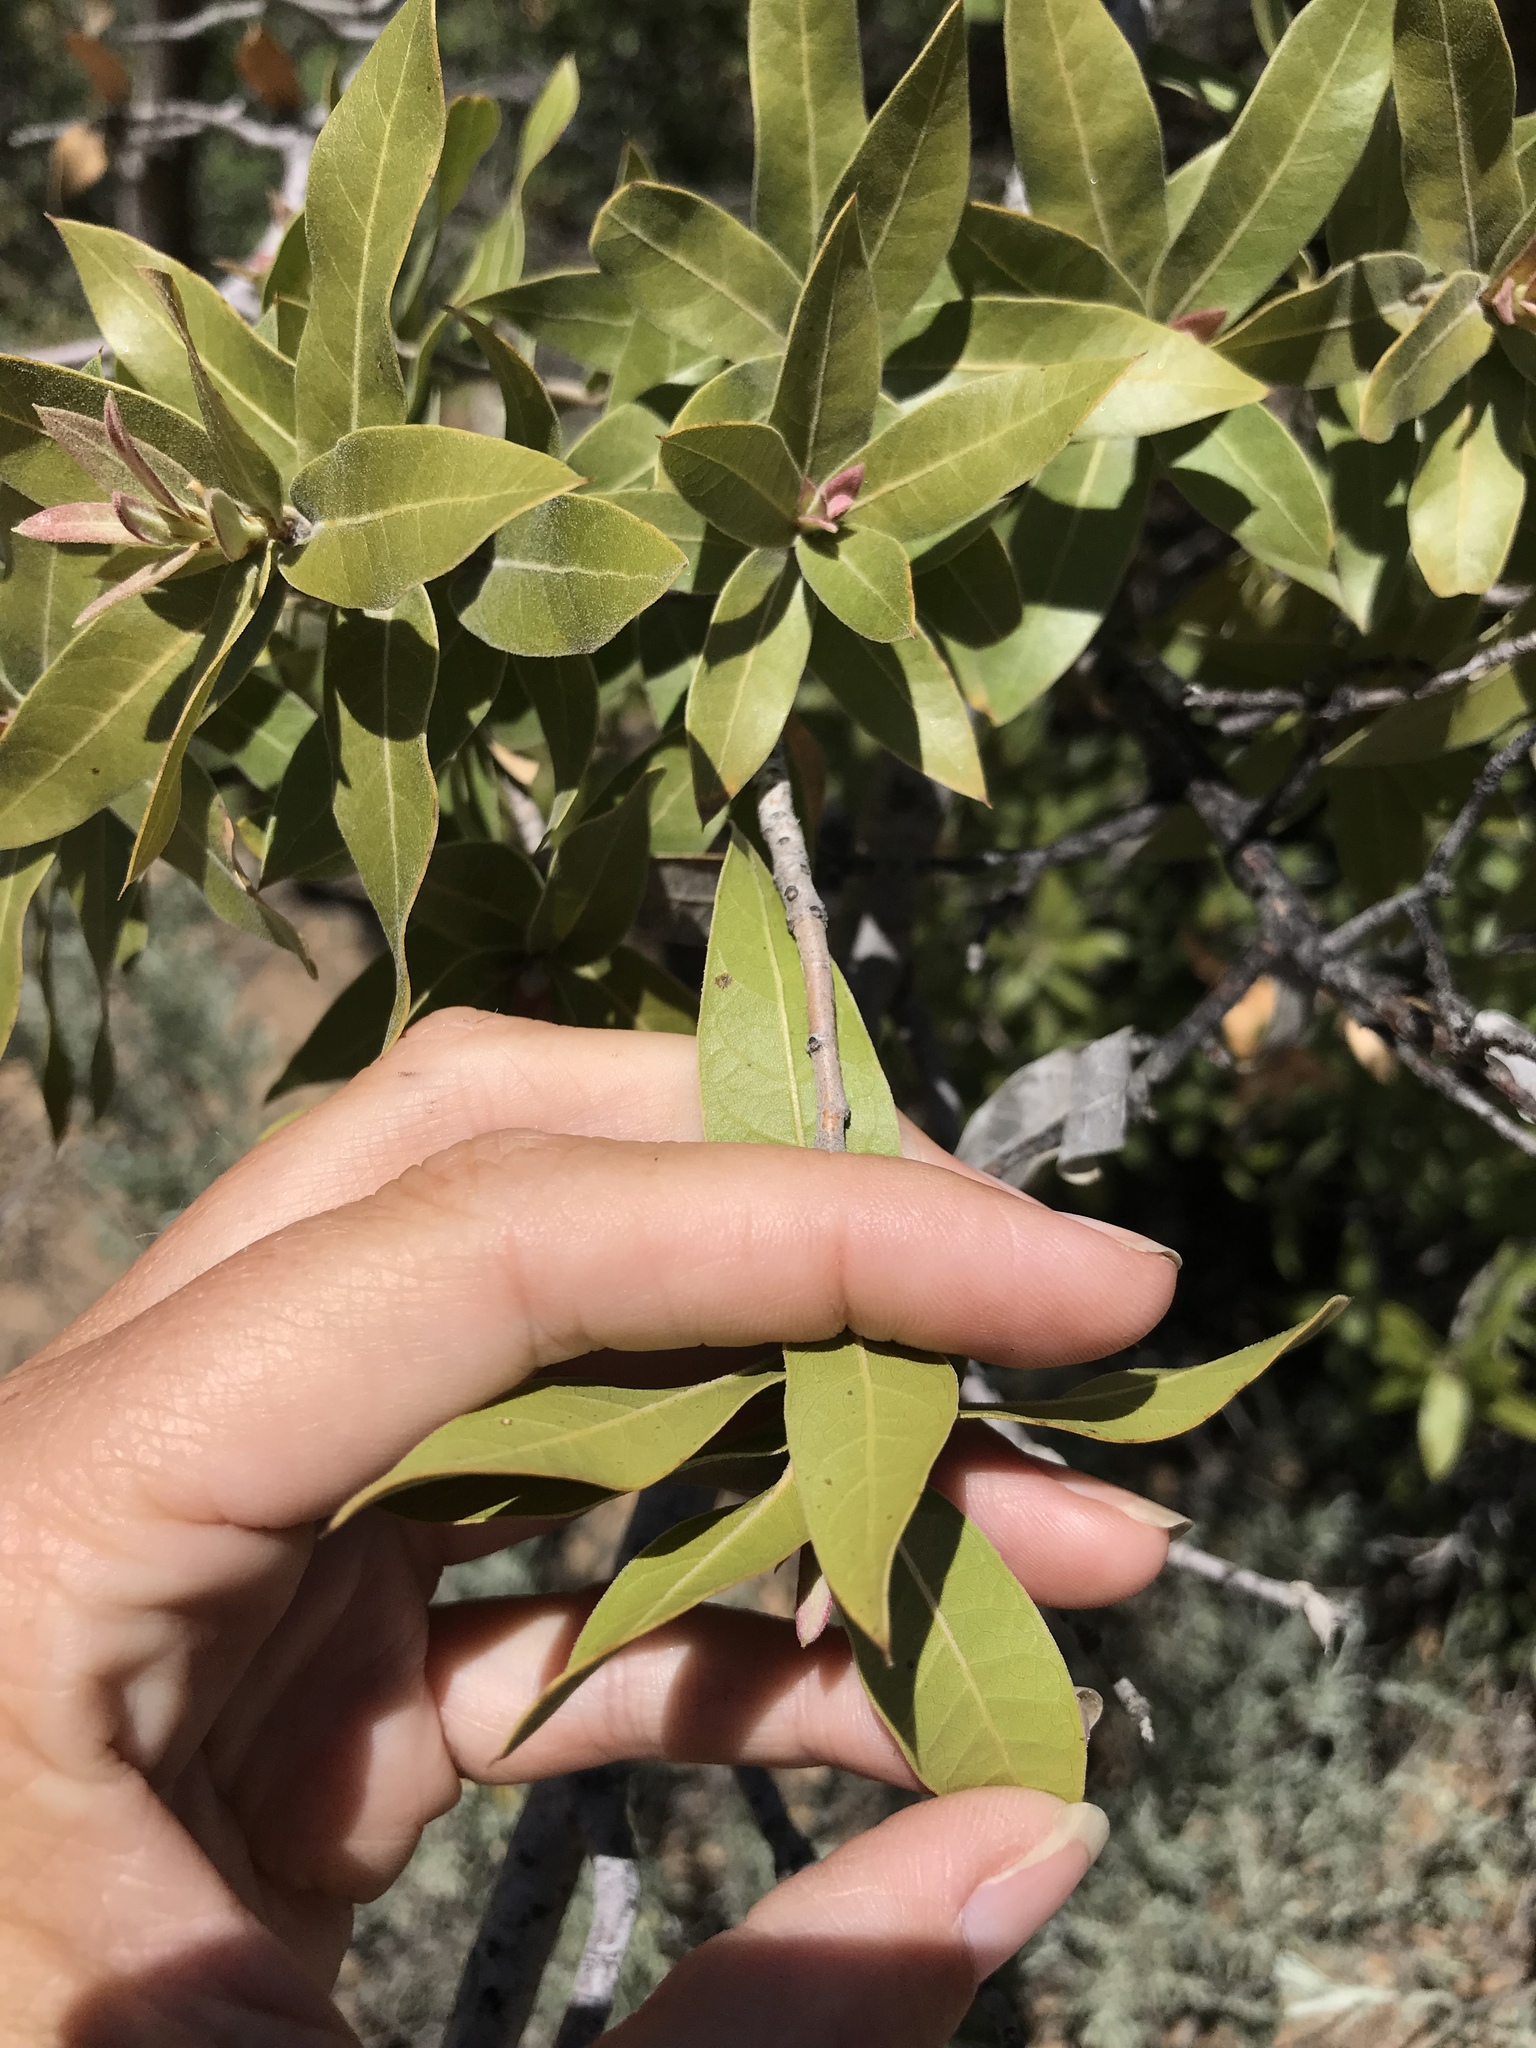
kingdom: Plantae
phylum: Tracheophyta
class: Magnoliopsida
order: Fagales
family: Fagaceae
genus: Quercus
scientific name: Quercus peninsularis
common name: Pacific emory oak
